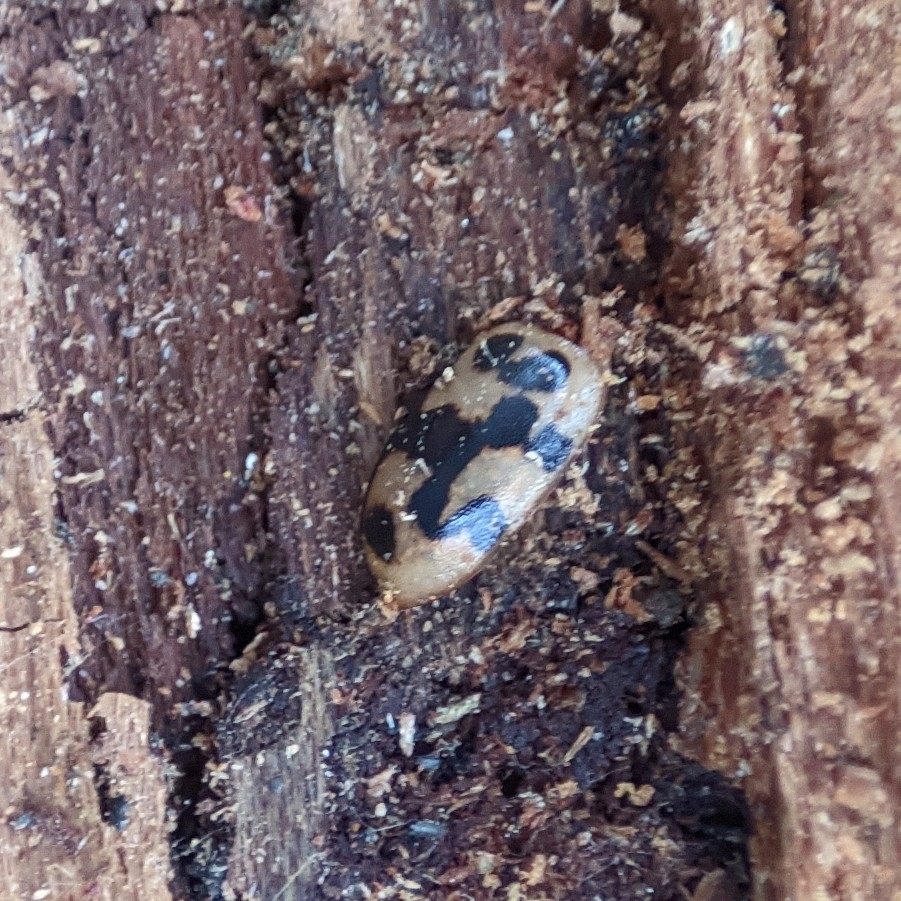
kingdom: Animalia
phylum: Arthropoda
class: Insecta
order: Coleoptera
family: Coccinellidae
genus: Oenopia
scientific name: Oenopia conglobata
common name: Ladybird beetle
